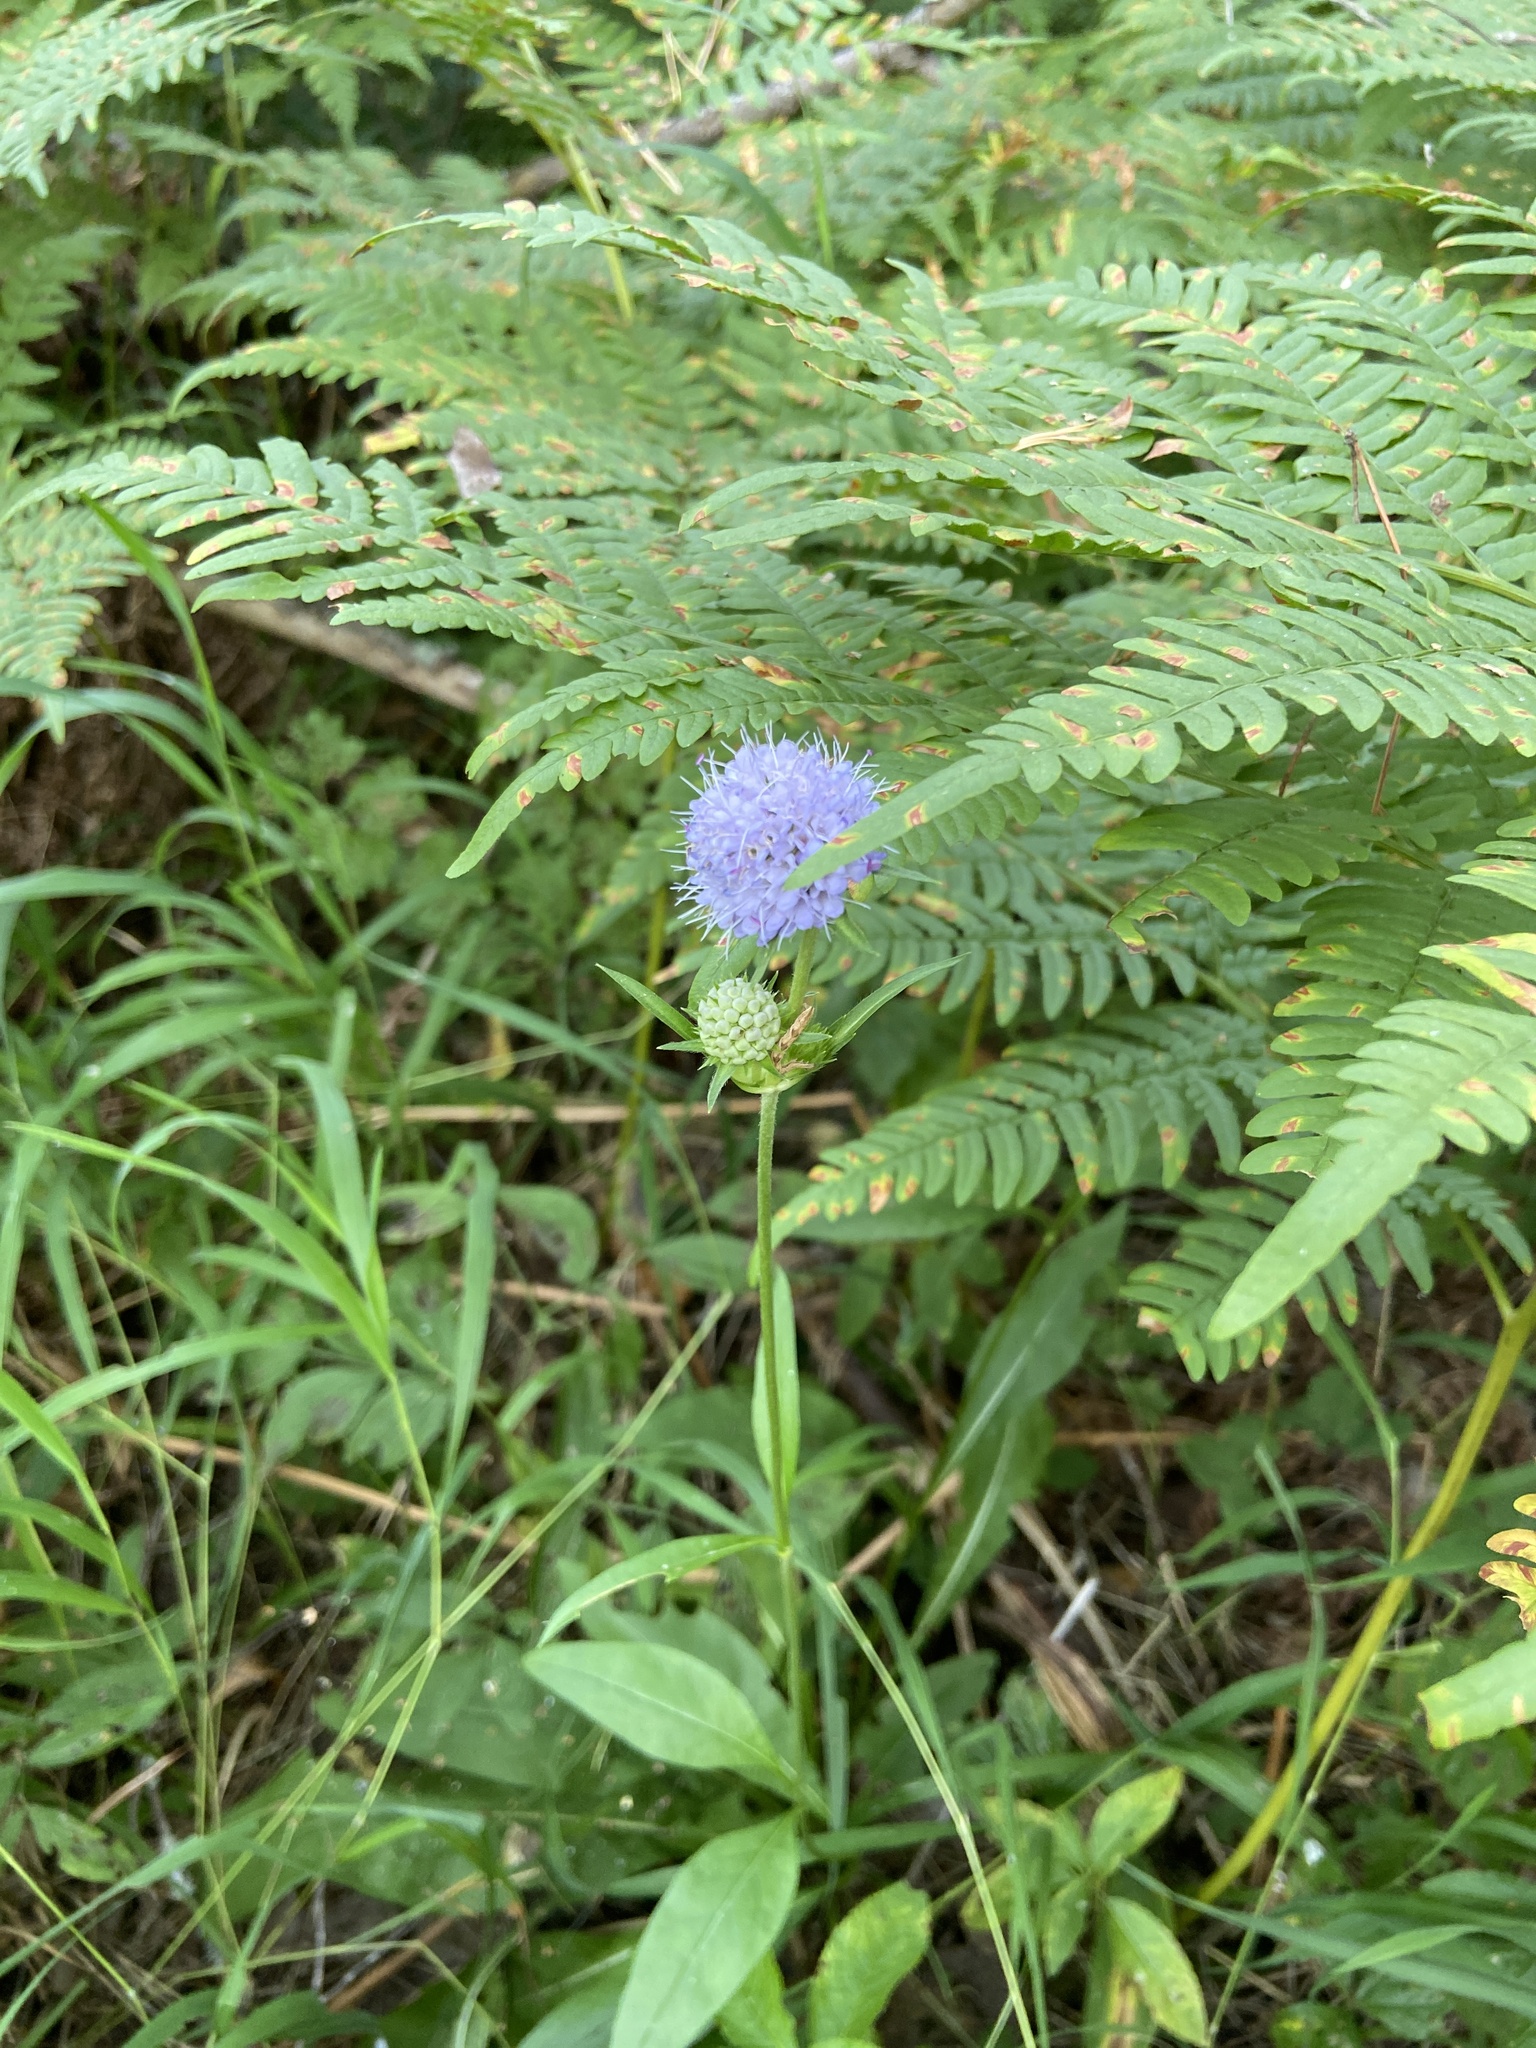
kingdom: Plantae
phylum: Tracheophyta
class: Magnoliopsida
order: Dipsacales
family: Caprifoliaceae
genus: Succisa
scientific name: Succisa pratensis
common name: Devil's-bit
